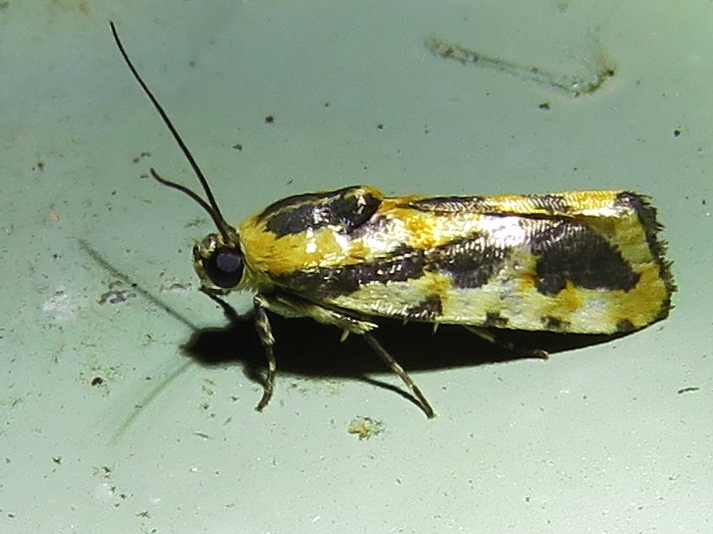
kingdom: Animalia
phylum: Arthropoda
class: Insecta
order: Lepidoptera
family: Noctuidae
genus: Acontia
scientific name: Acontia leo
